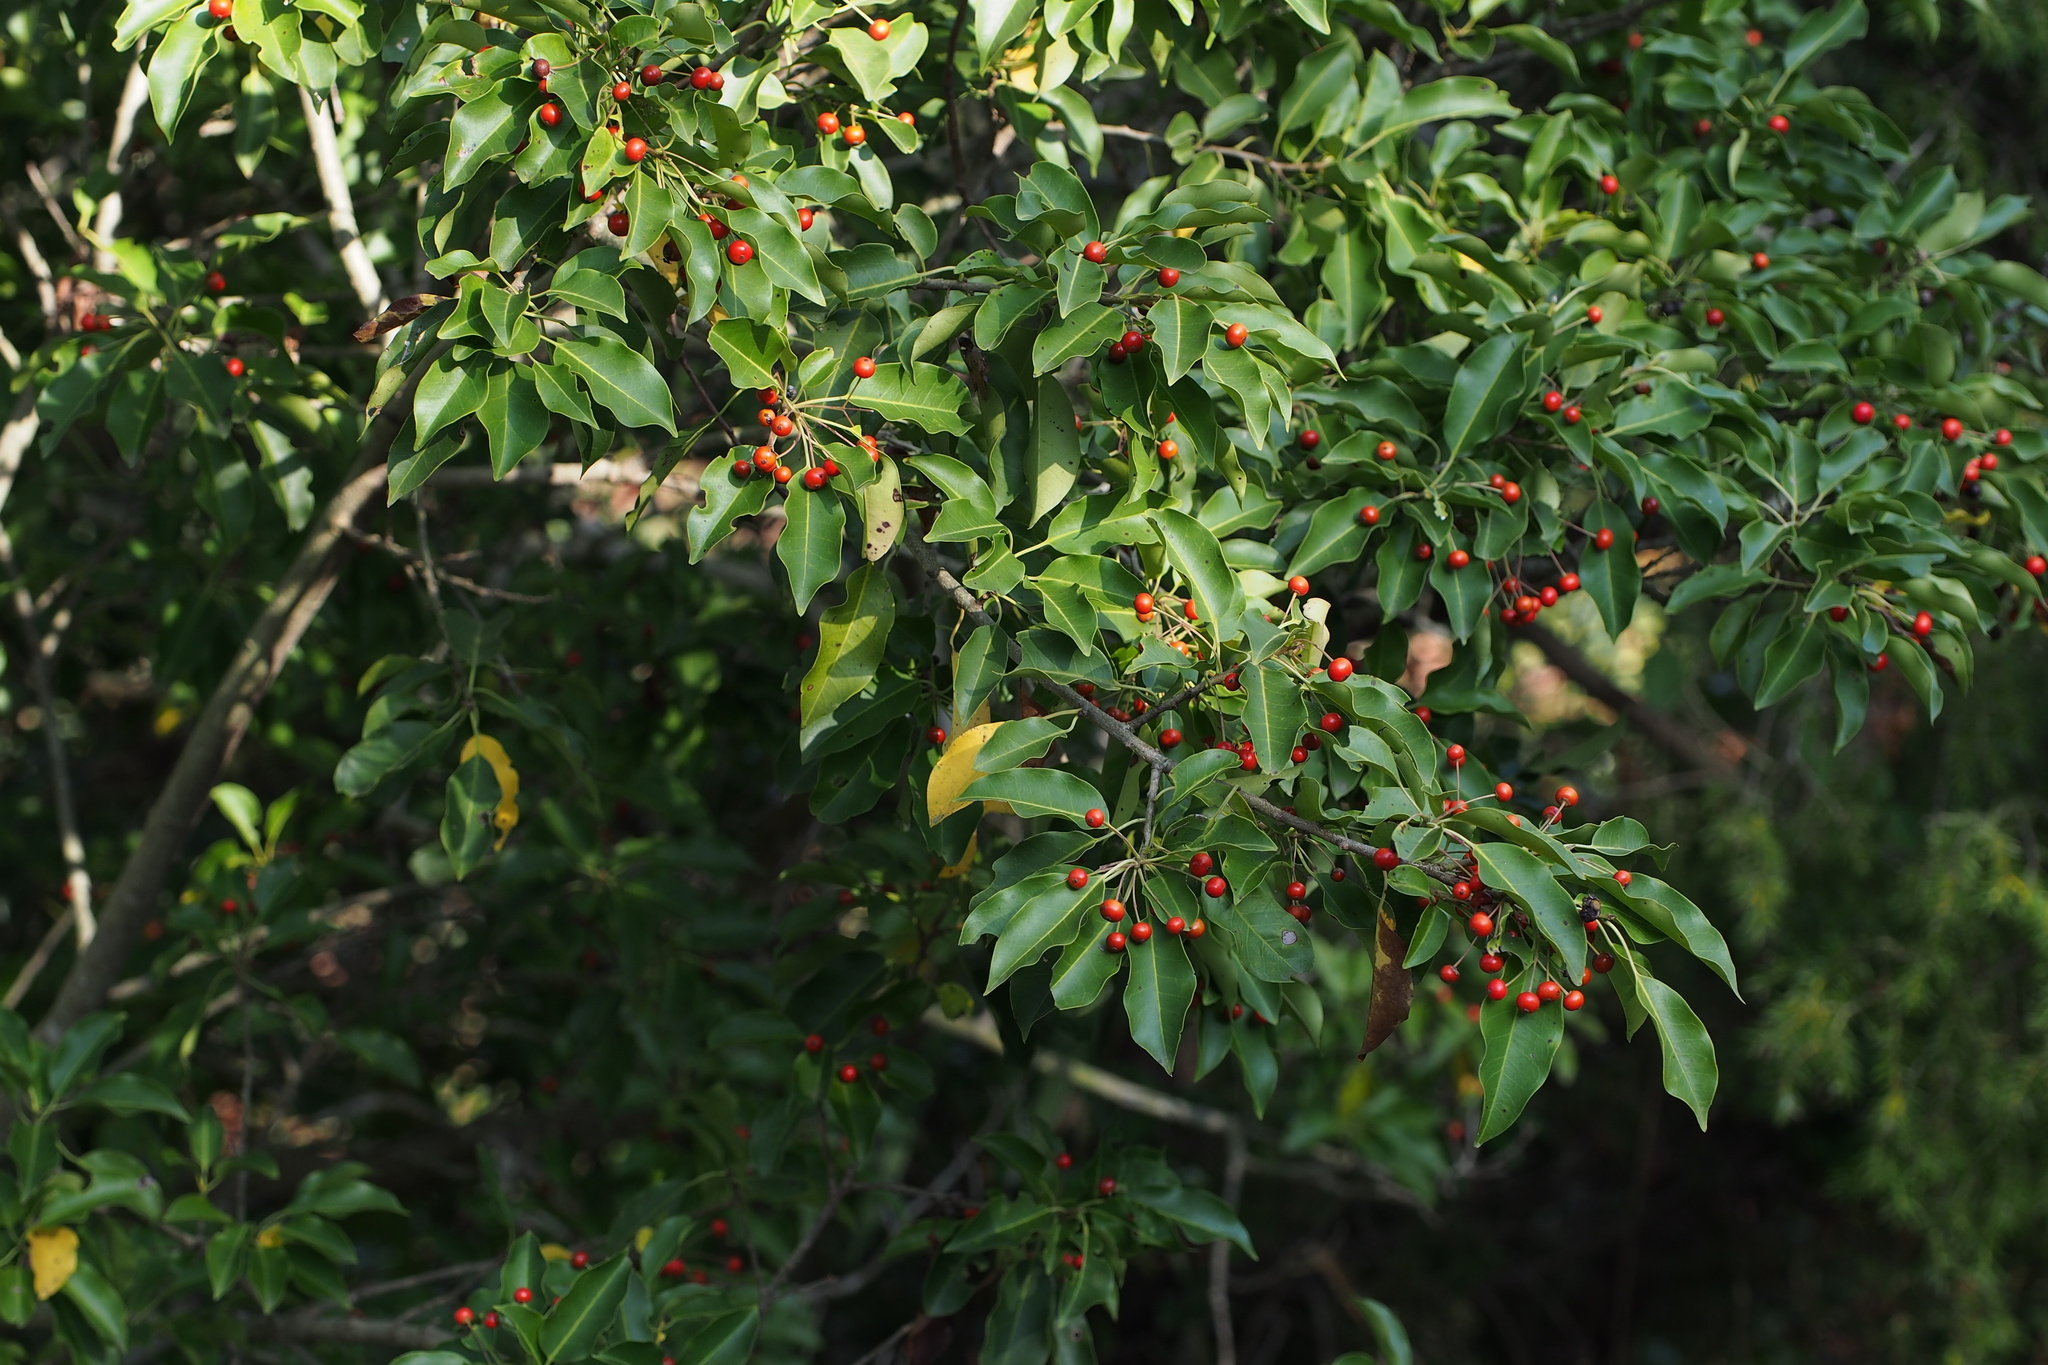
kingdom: Plantae
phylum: Tracheophyta
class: Magnoliopsida
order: Aquifoliales
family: Aquifoliaceae
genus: Ilex
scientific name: Ilex pedunculosa
